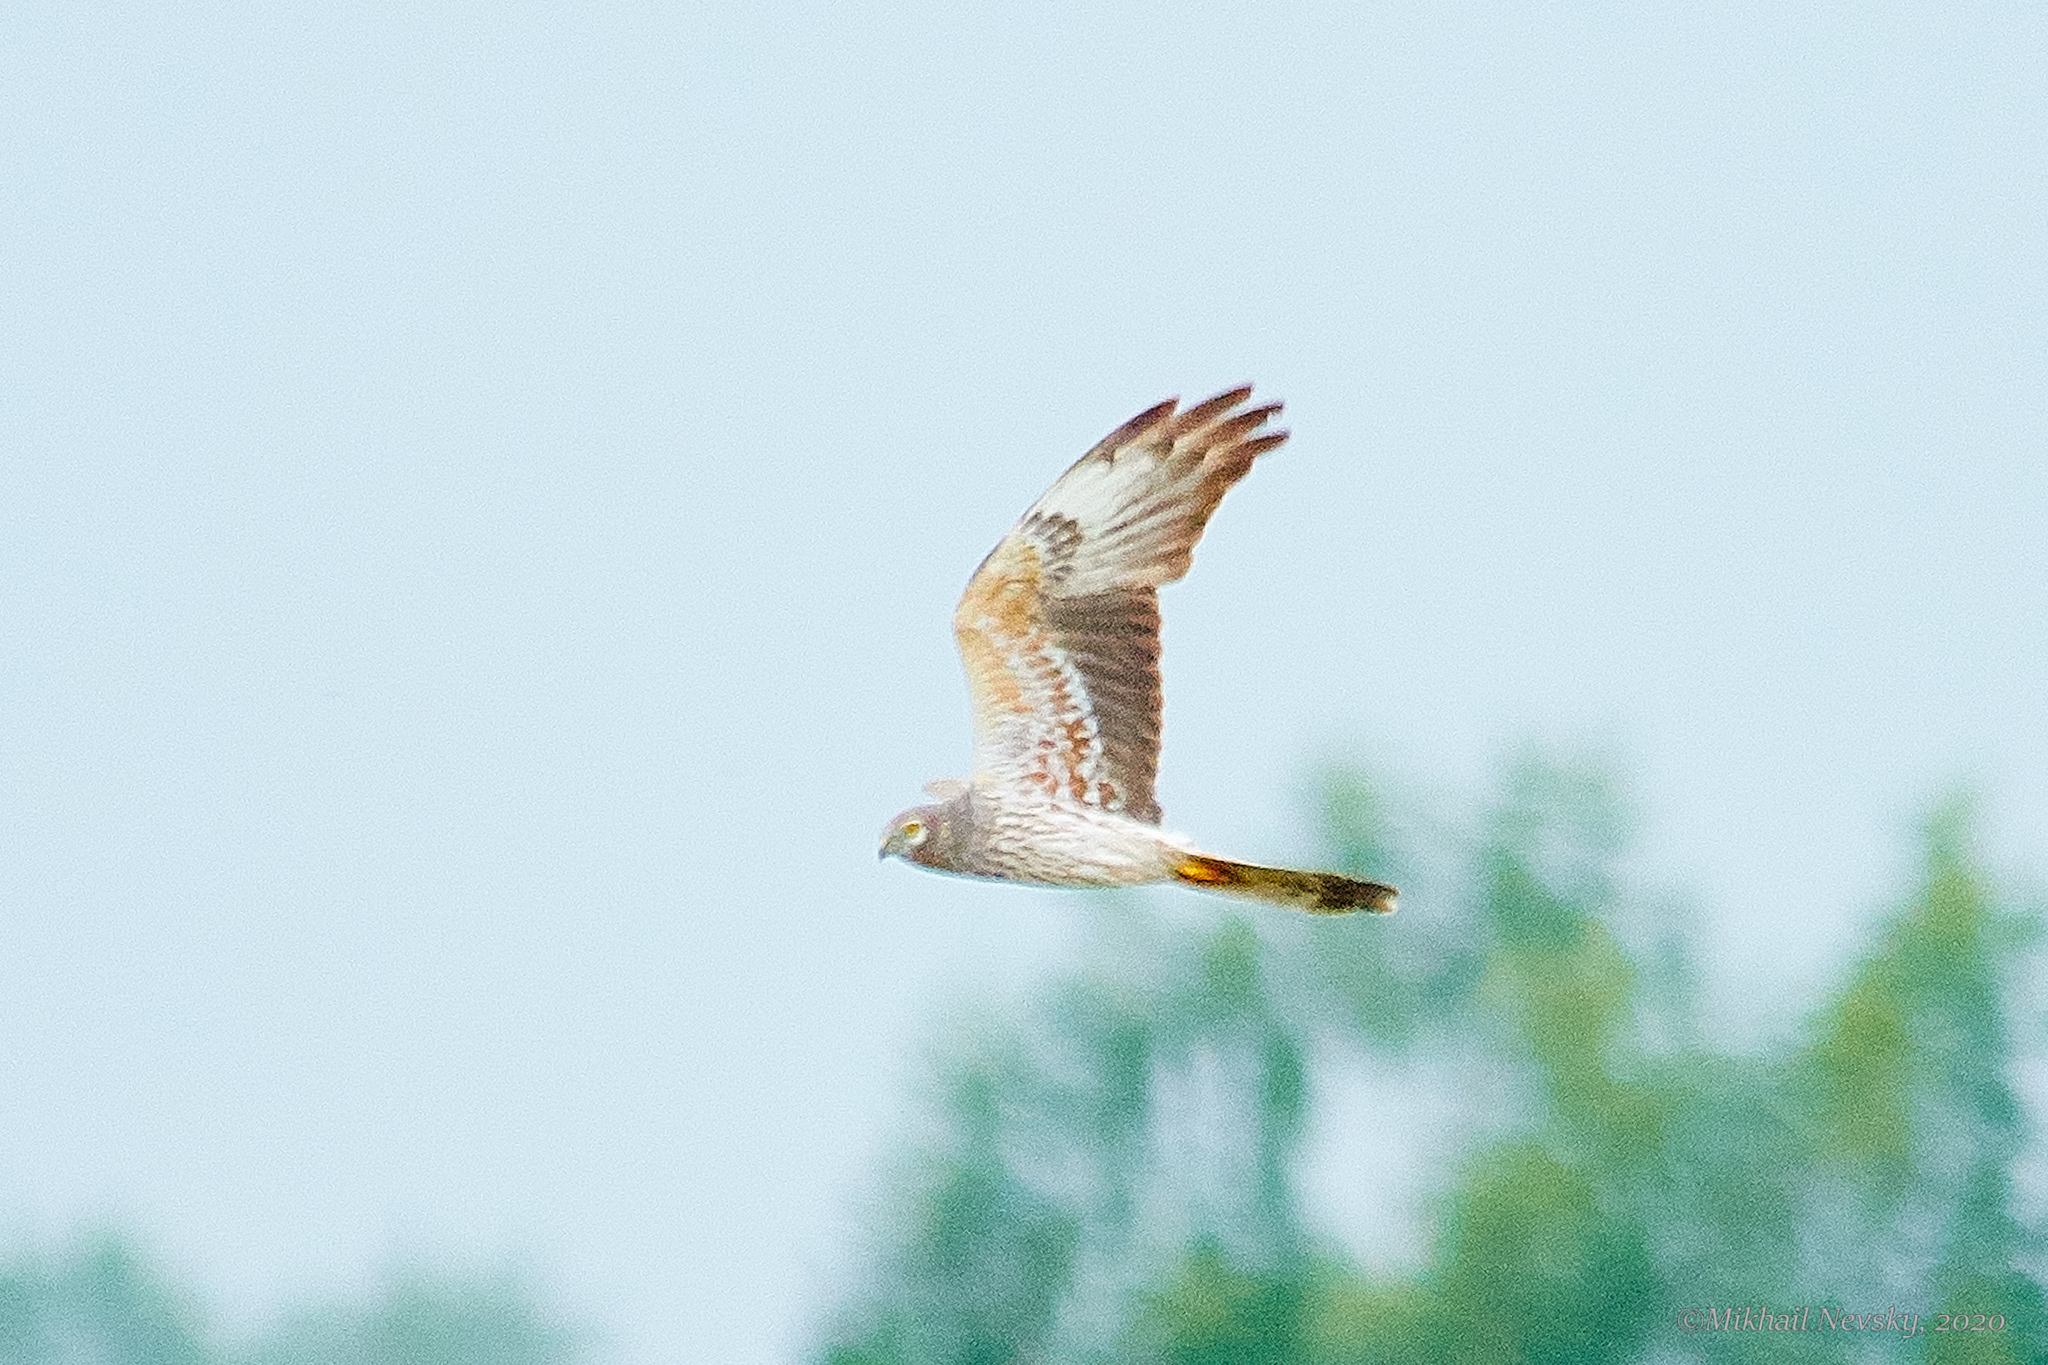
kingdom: Animalia
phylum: Chordata
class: Aves
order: Accipitriformes
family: Accipitridae
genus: Circus
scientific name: Circus pygargus
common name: Montagu's harrier
